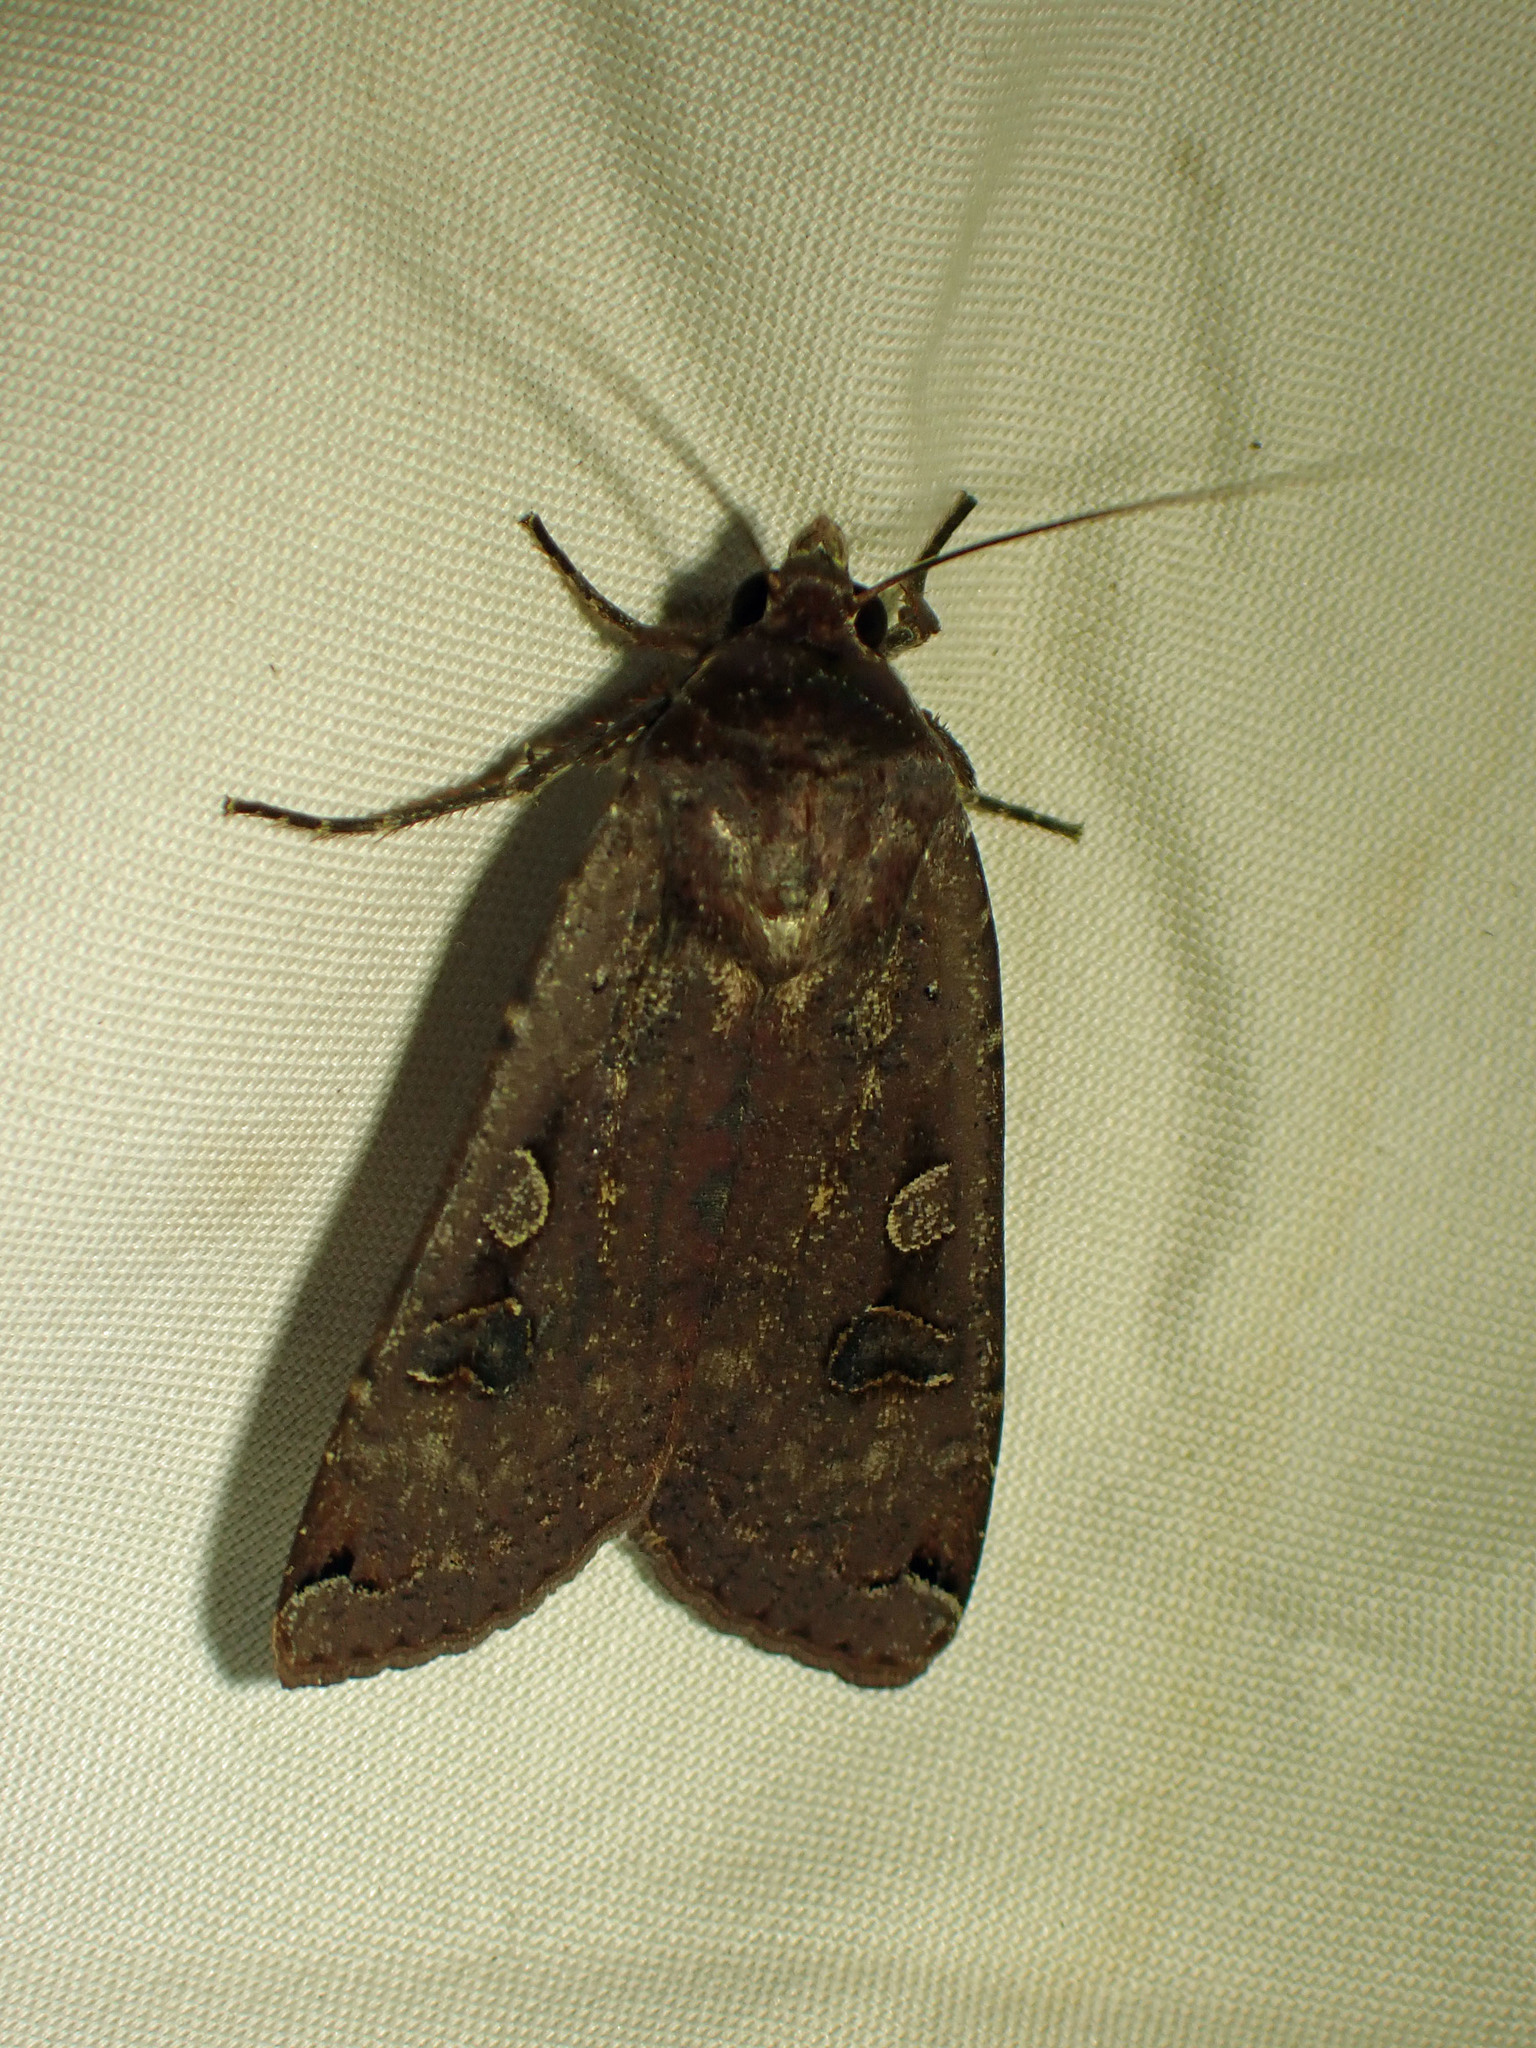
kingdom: Animalia
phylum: Arthropoda
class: Insecta
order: Lepidoptera
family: Noctuidae
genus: Noctua
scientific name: Noctua pronuba
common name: Large yellow underwing
